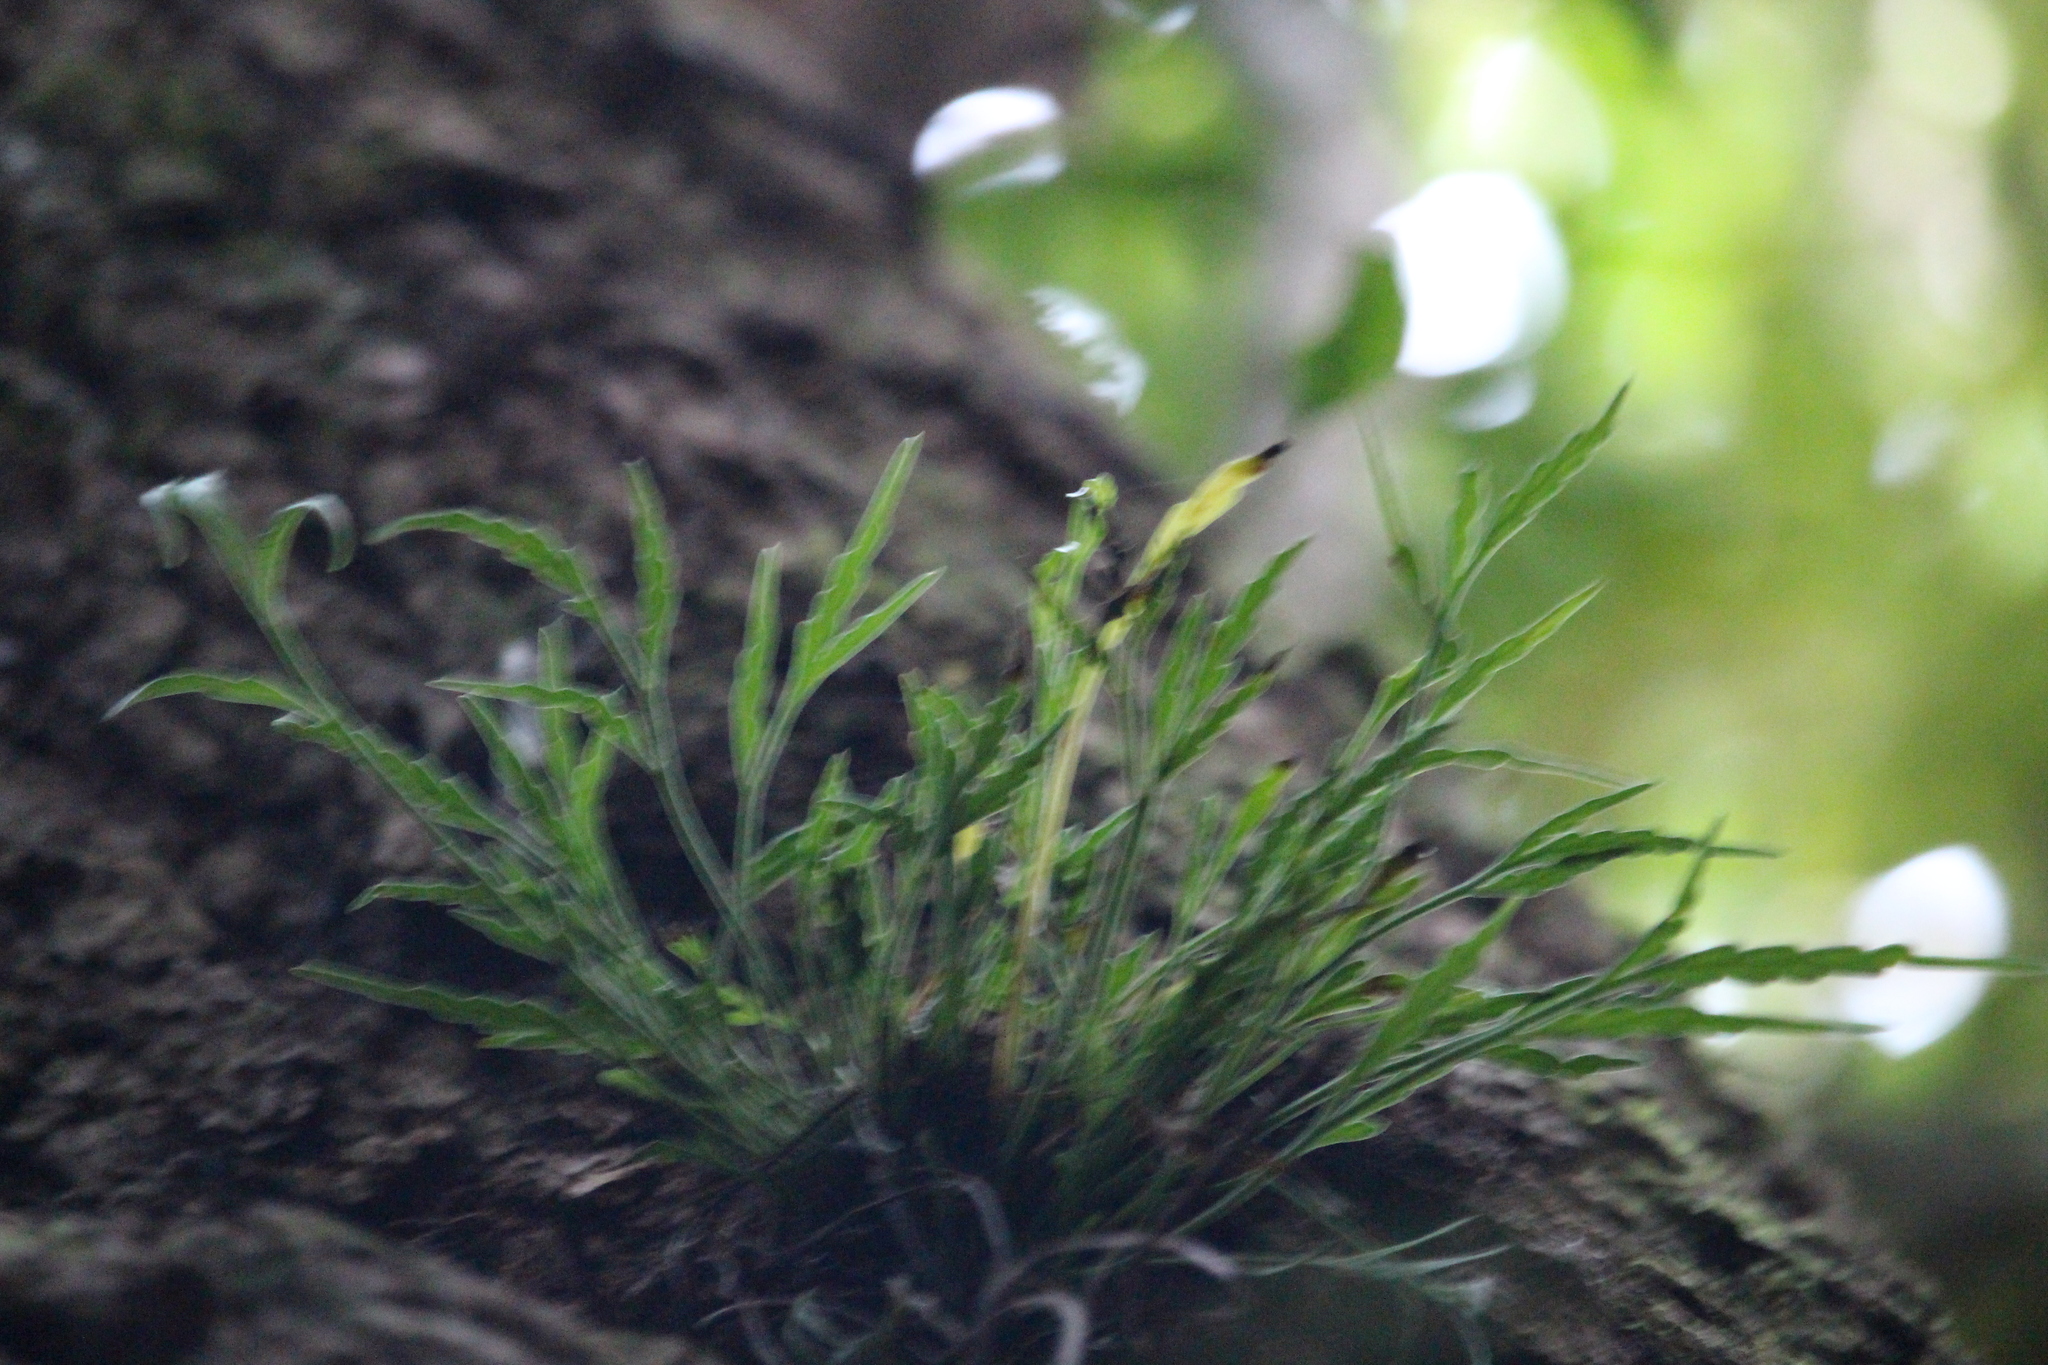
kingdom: Plantae
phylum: Tracheophyta
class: Polypodiopsida
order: Polypodiales
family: Aspleniaceae
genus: Asplenium
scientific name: Asplenium flaccidum
